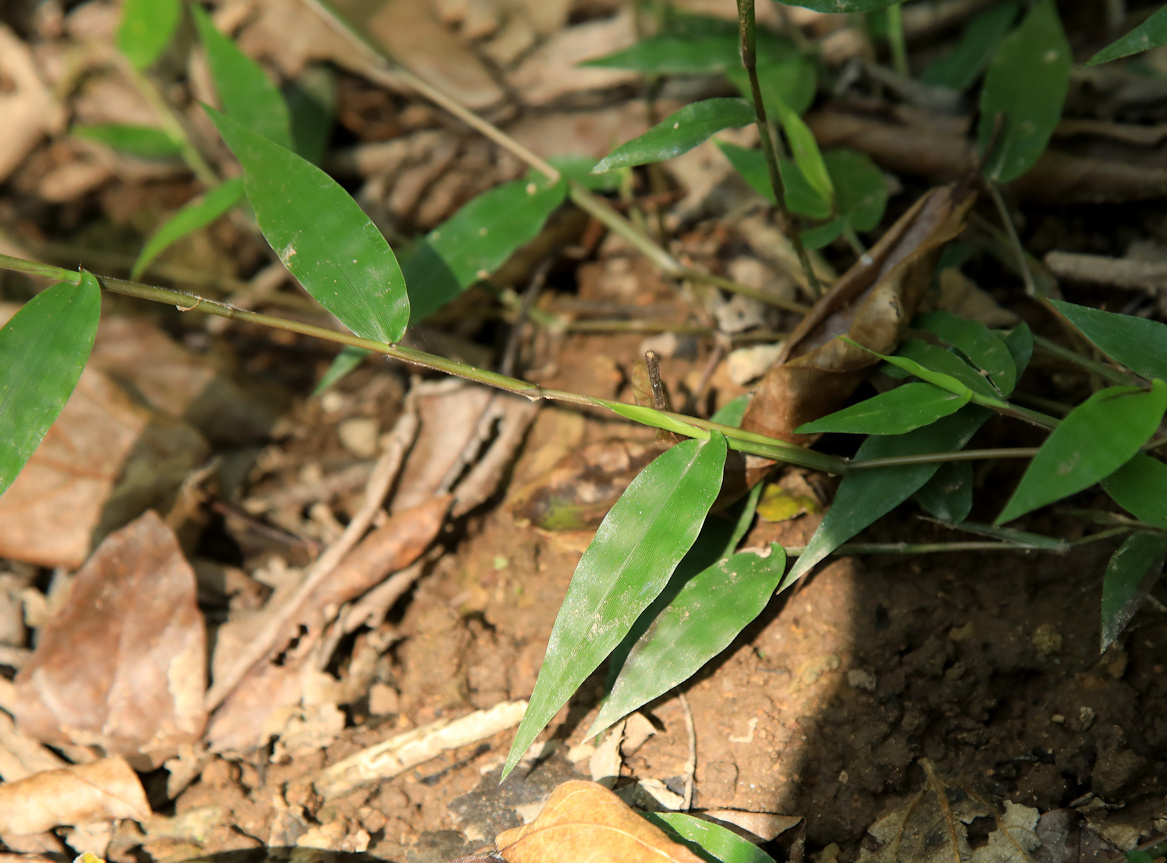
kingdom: Plantae
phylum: Tracheophyta
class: Liliopsida
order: Poales
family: Poaceae
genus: Oplismenus
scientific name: Oplismenus hirtellus
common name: Basketgrass
